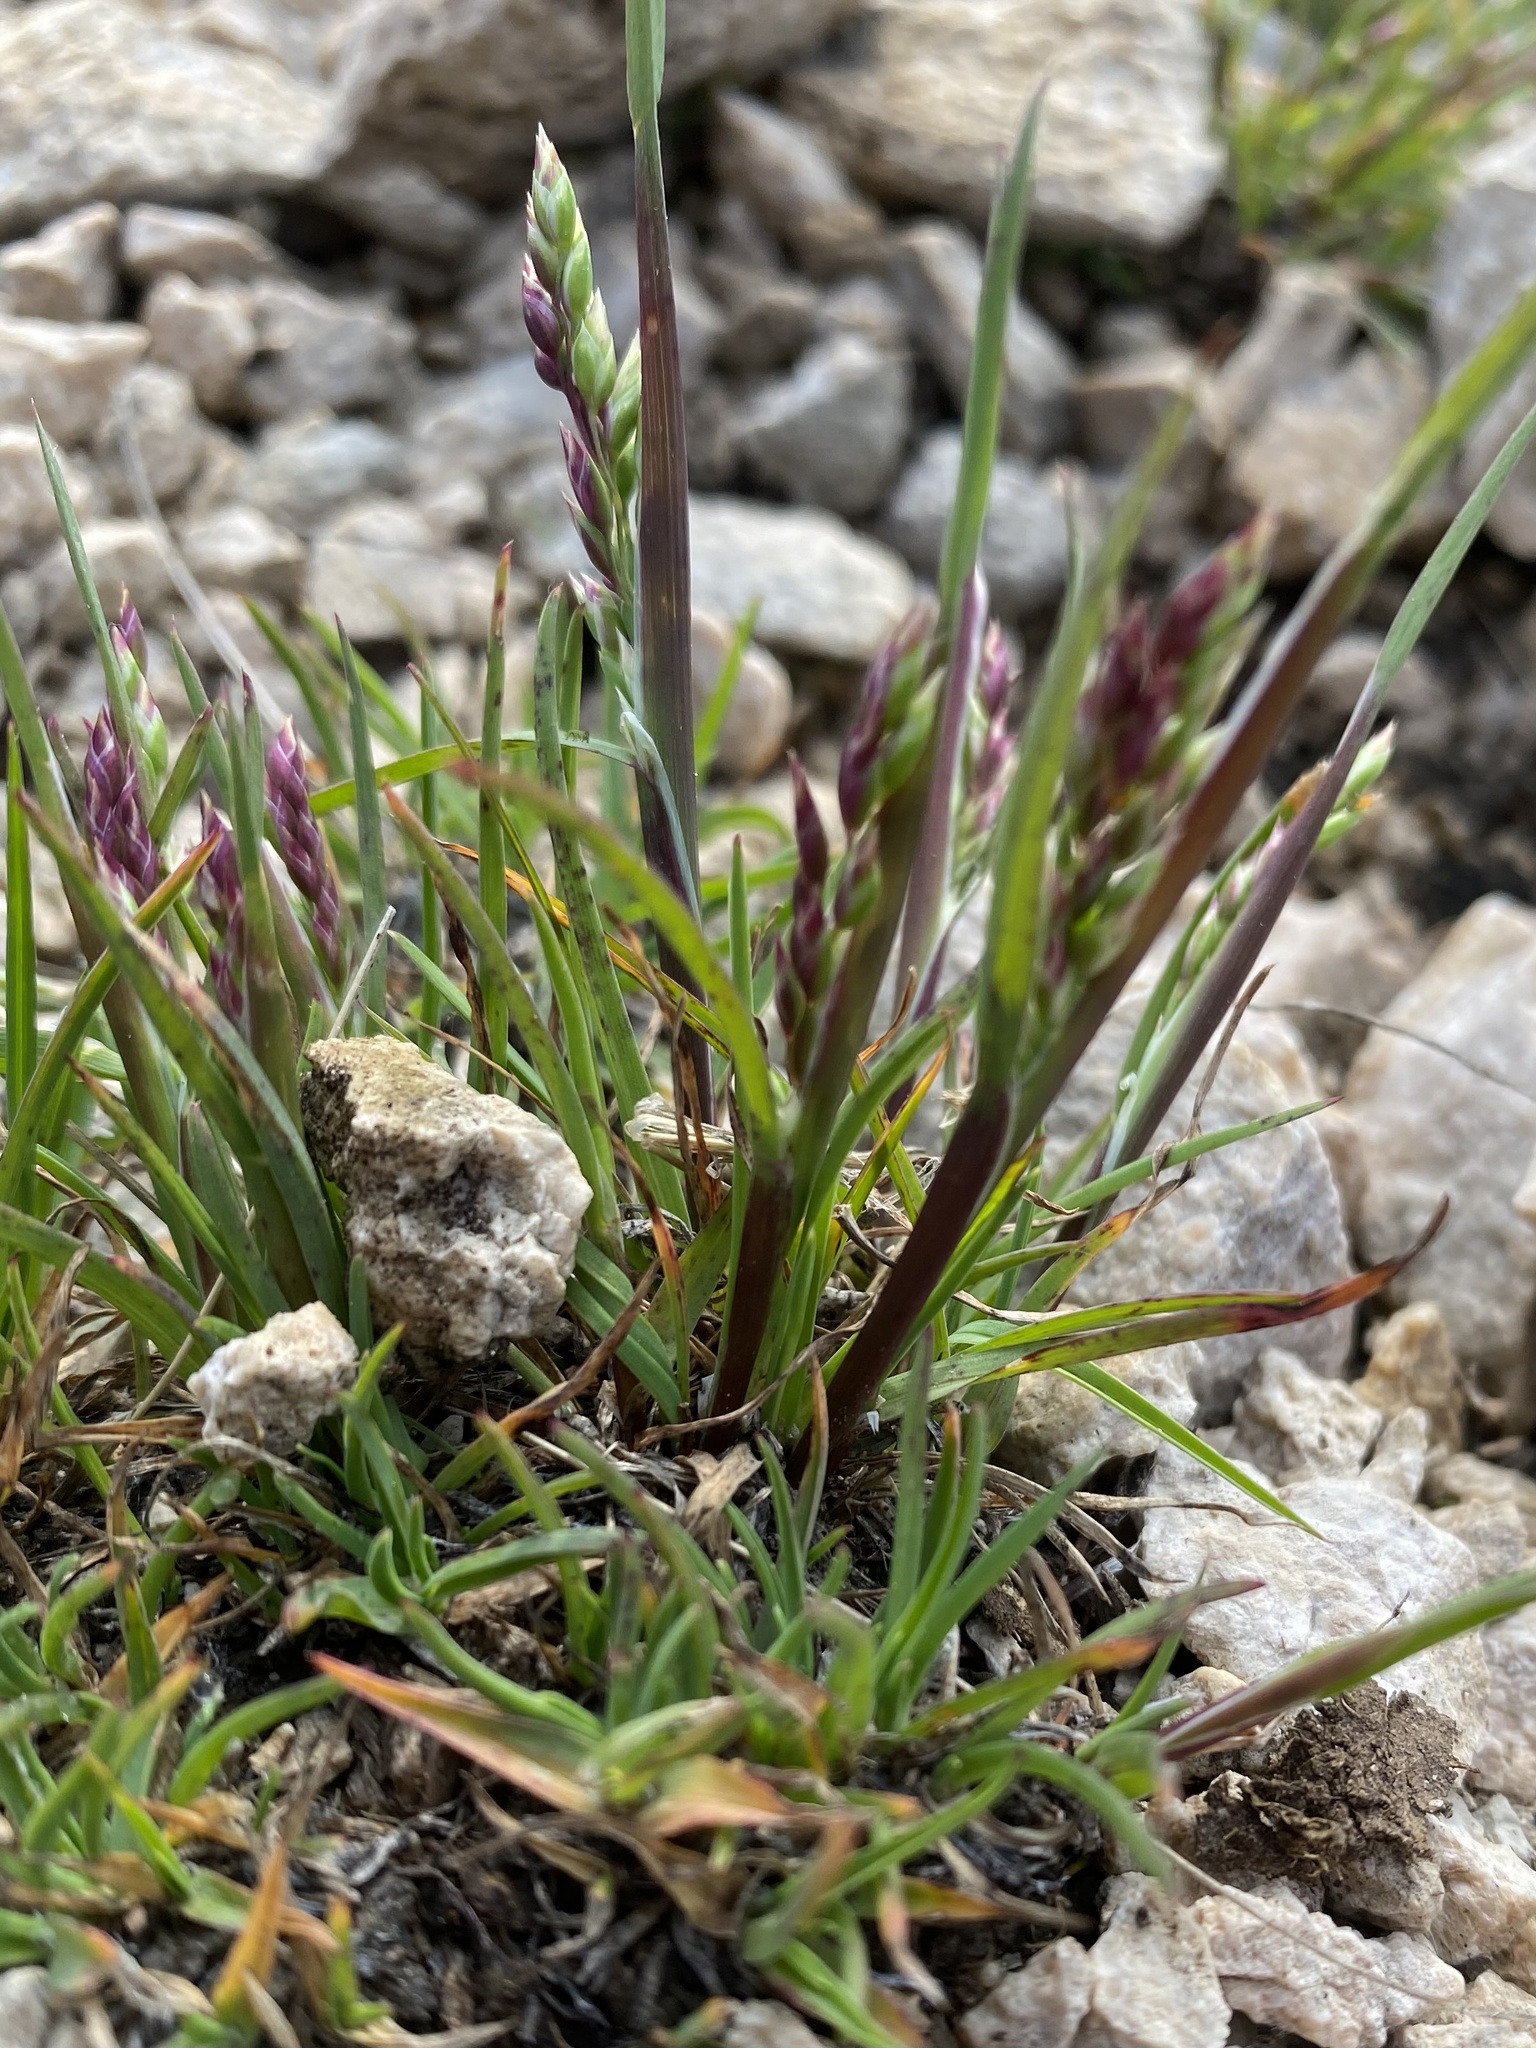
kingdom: Plantae
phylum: Tracheophyta
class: Liliopsida
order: Poales
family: Poaceae
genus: Poa
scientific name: Poa alpina
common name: Alpine bluegrass
